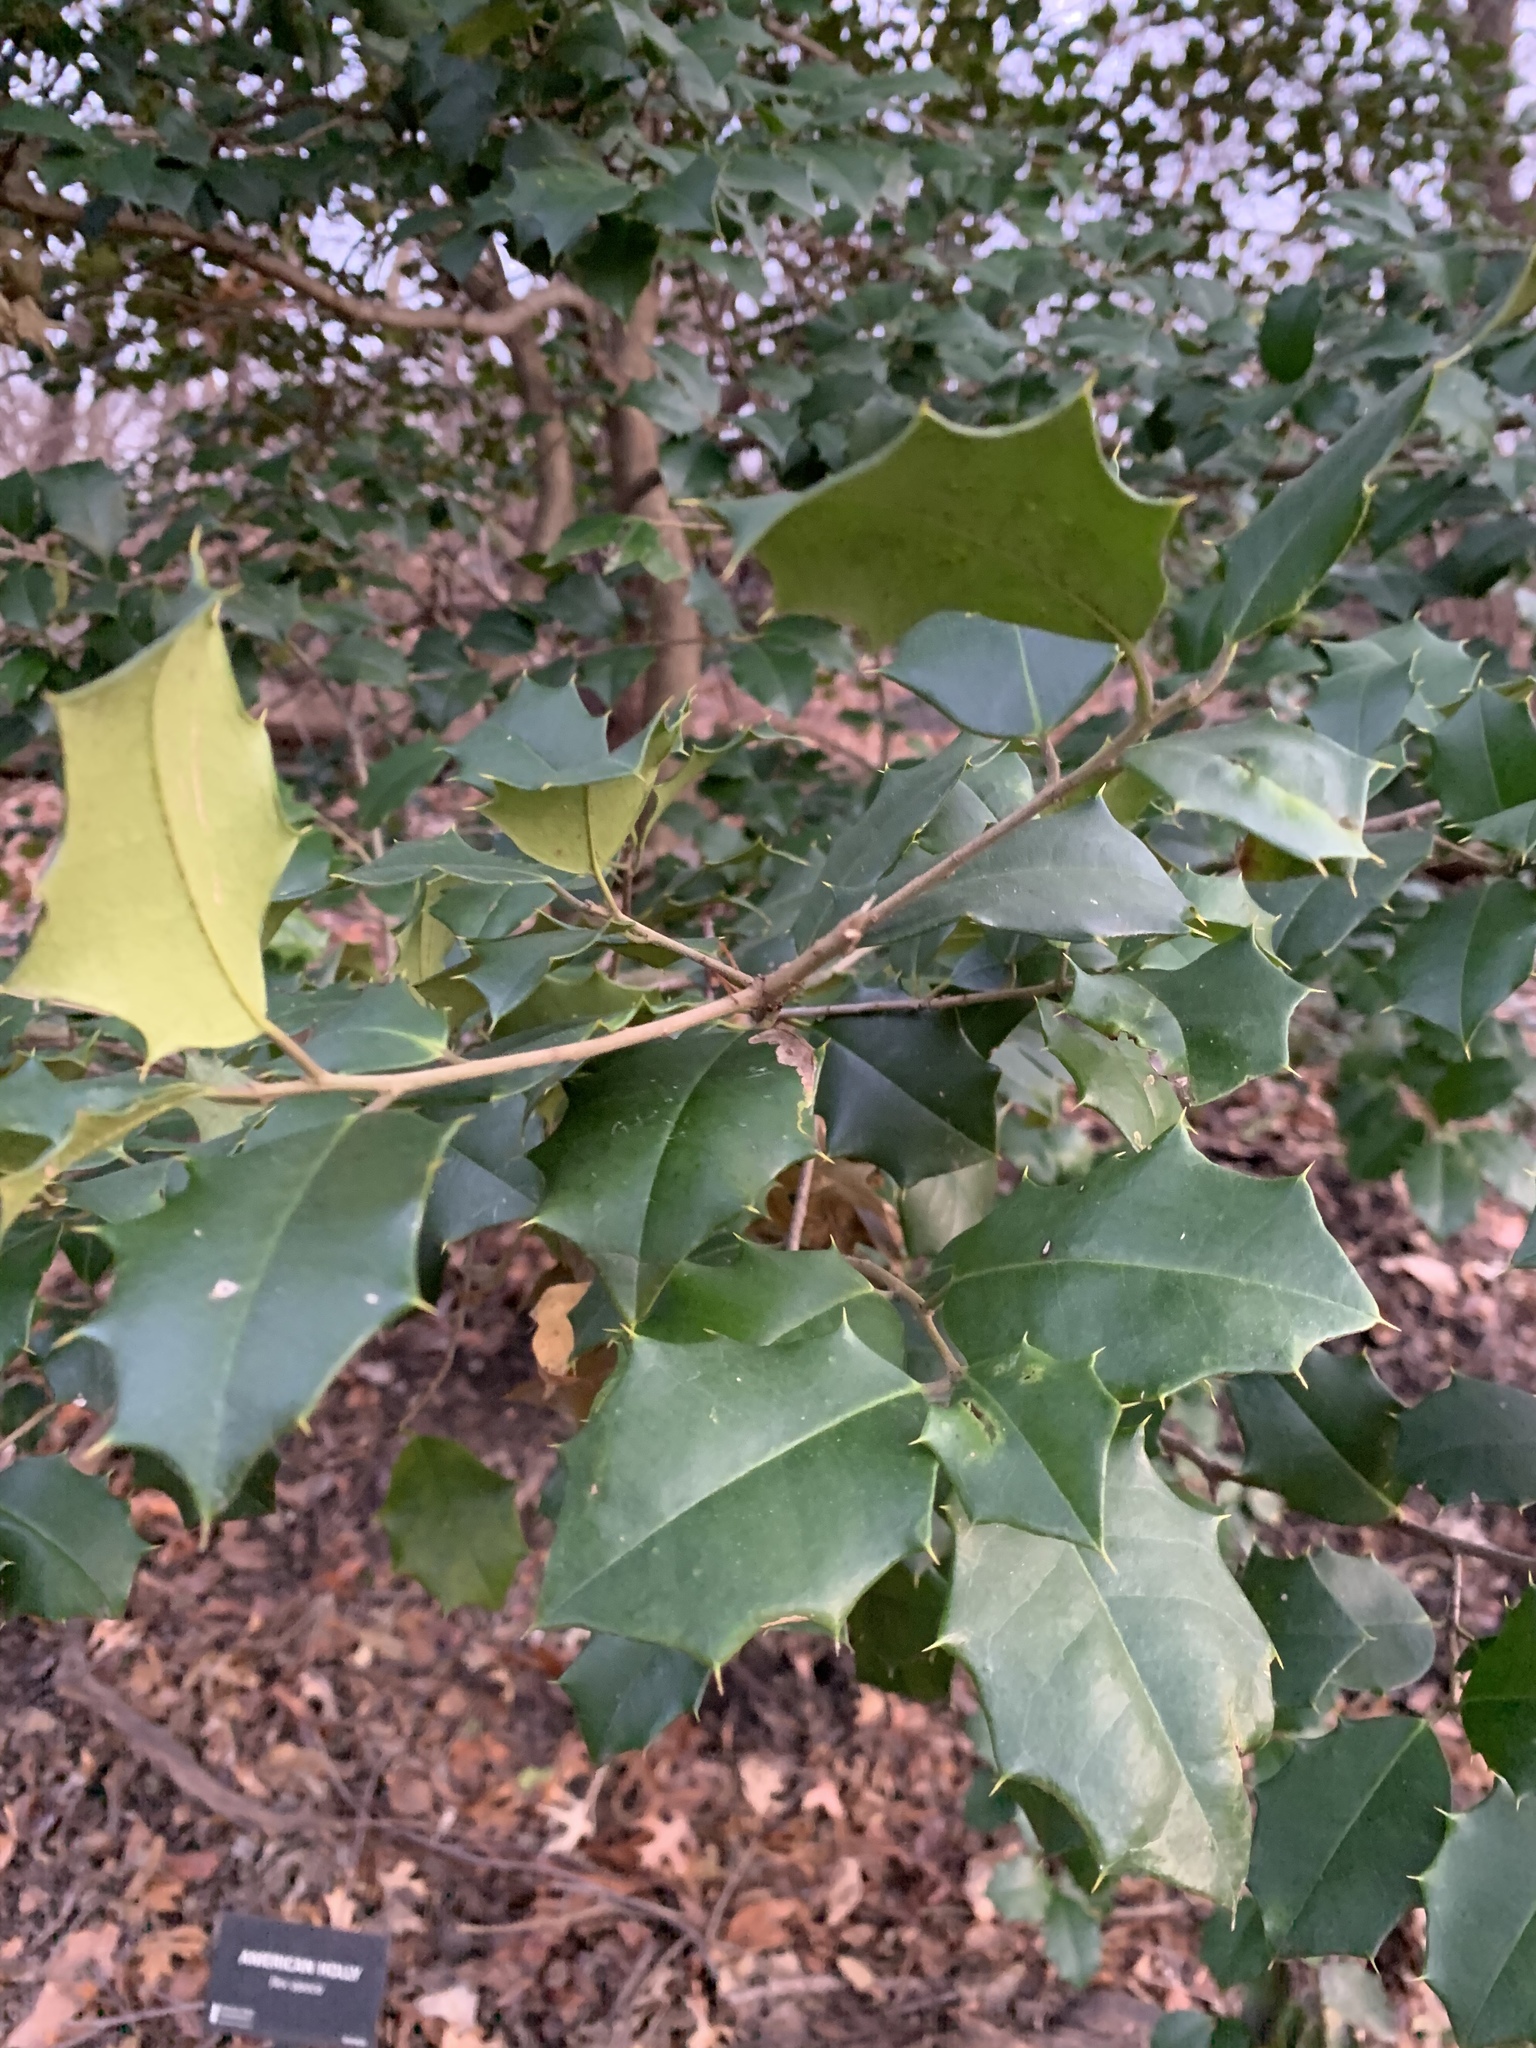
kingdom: Plantae
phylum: Tracheophyta
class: Magnoliopsida
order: Aquifoliales
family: Aquifoliaceae
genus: Ilex
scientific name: Ilex opaca
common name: American holly
